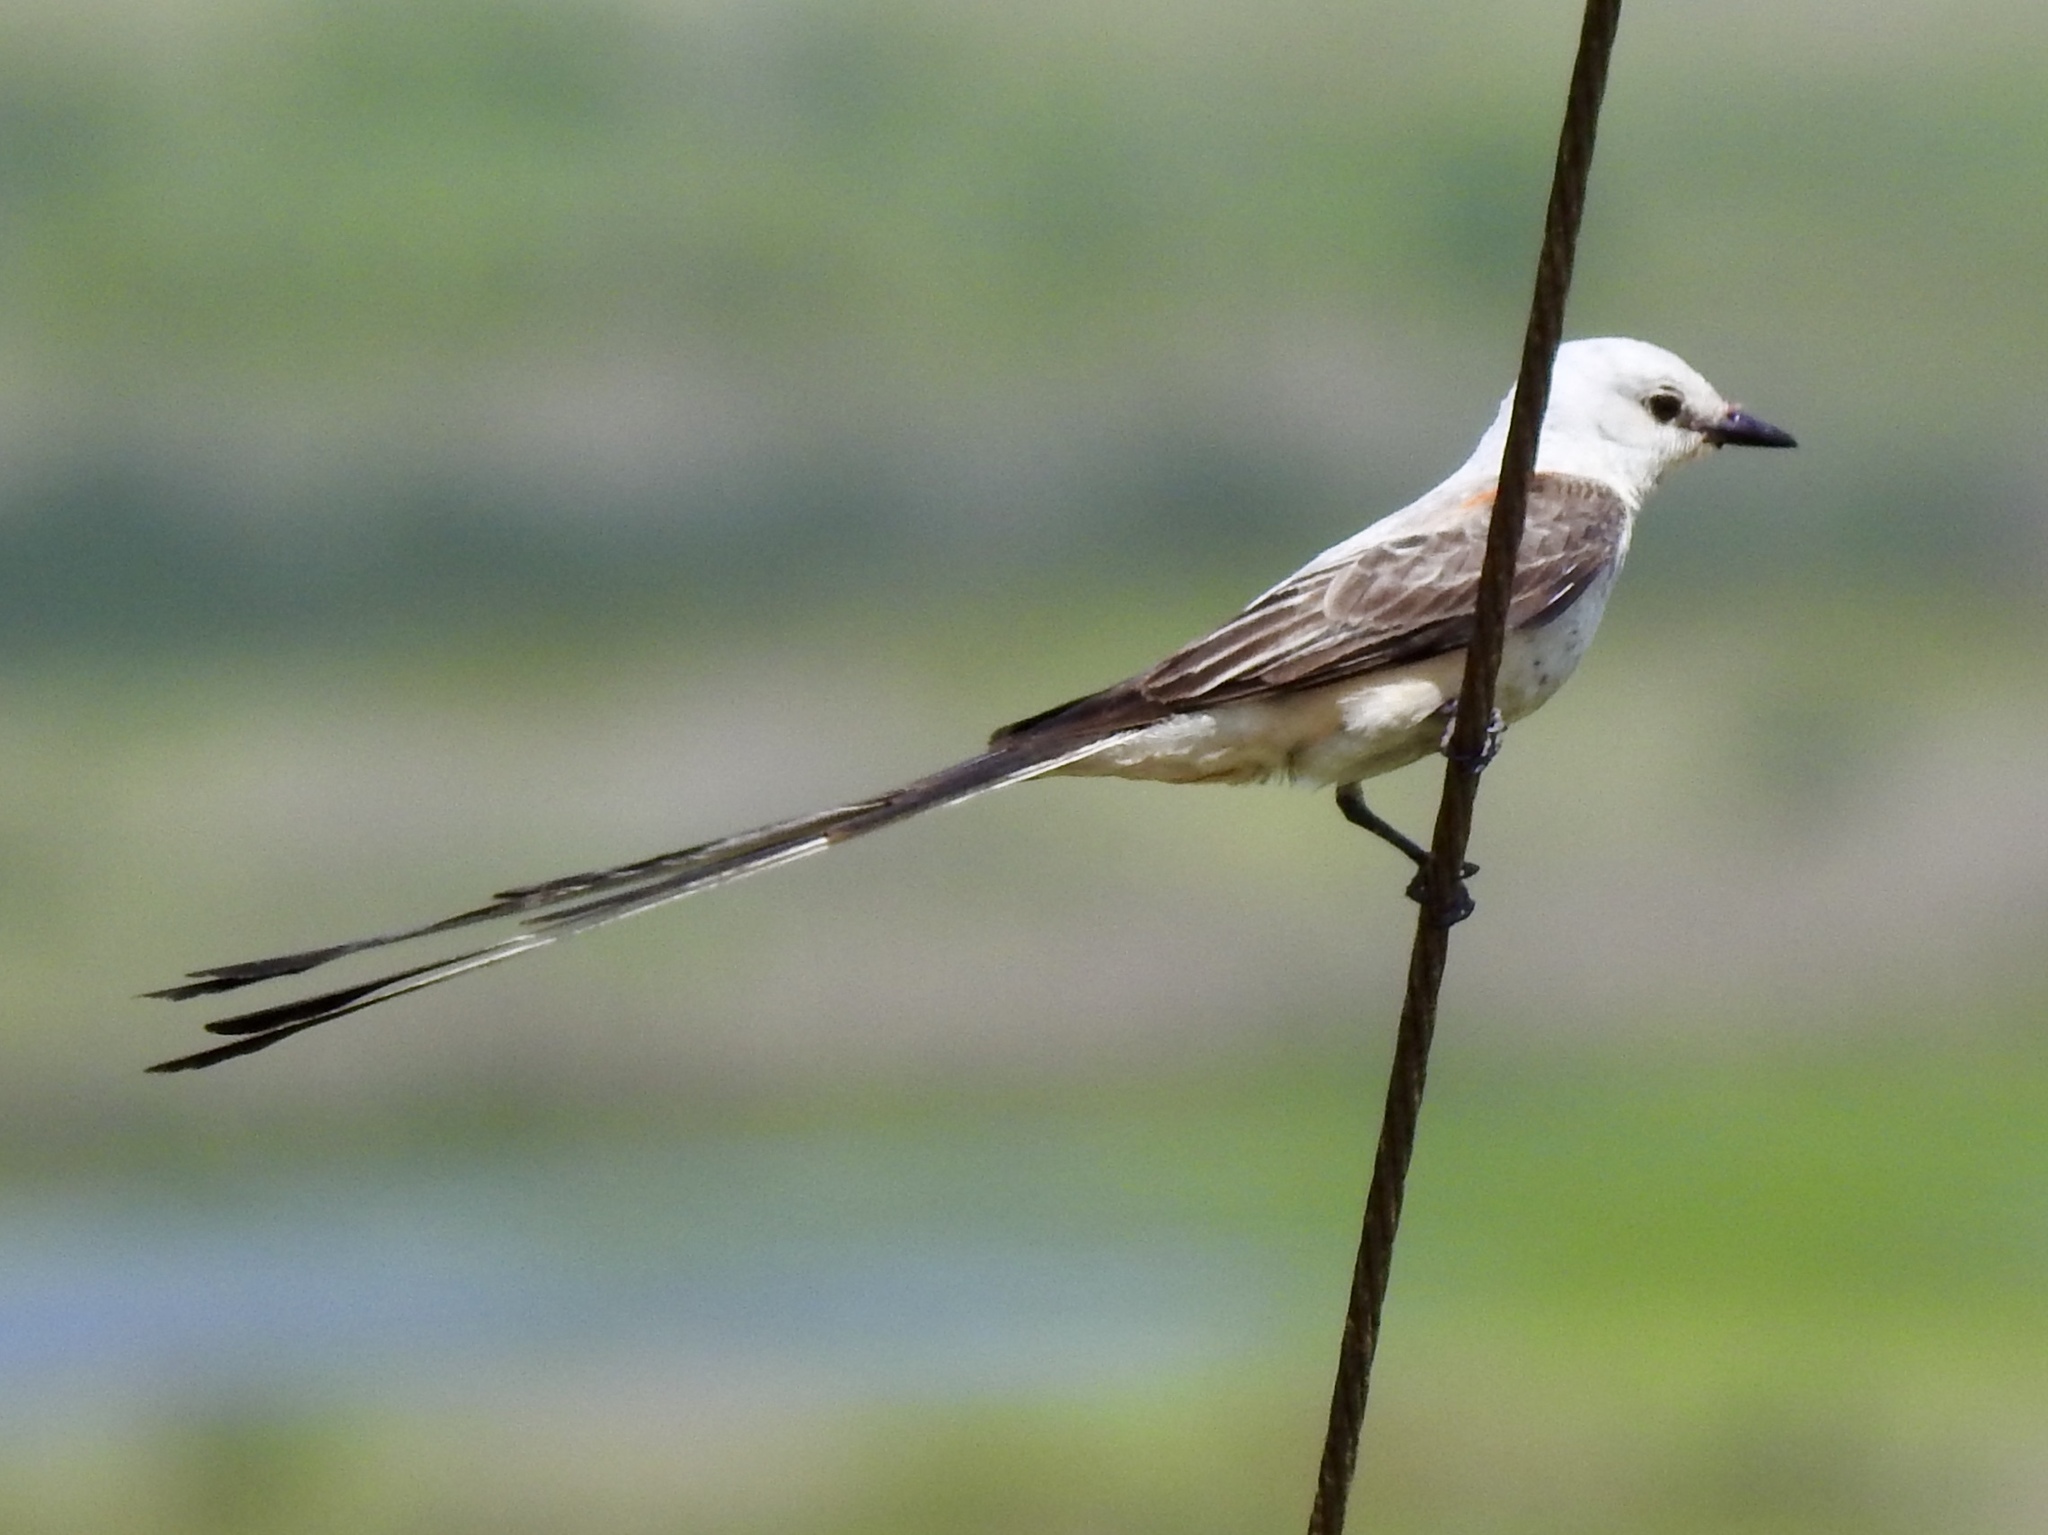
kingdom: Animalia
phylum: Chordata
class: Aves
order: Passeriformes
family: Tyrannidae
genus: Tyrannus
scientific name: Tyrannus forficatus
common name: Scissor-tailed flycatcher
